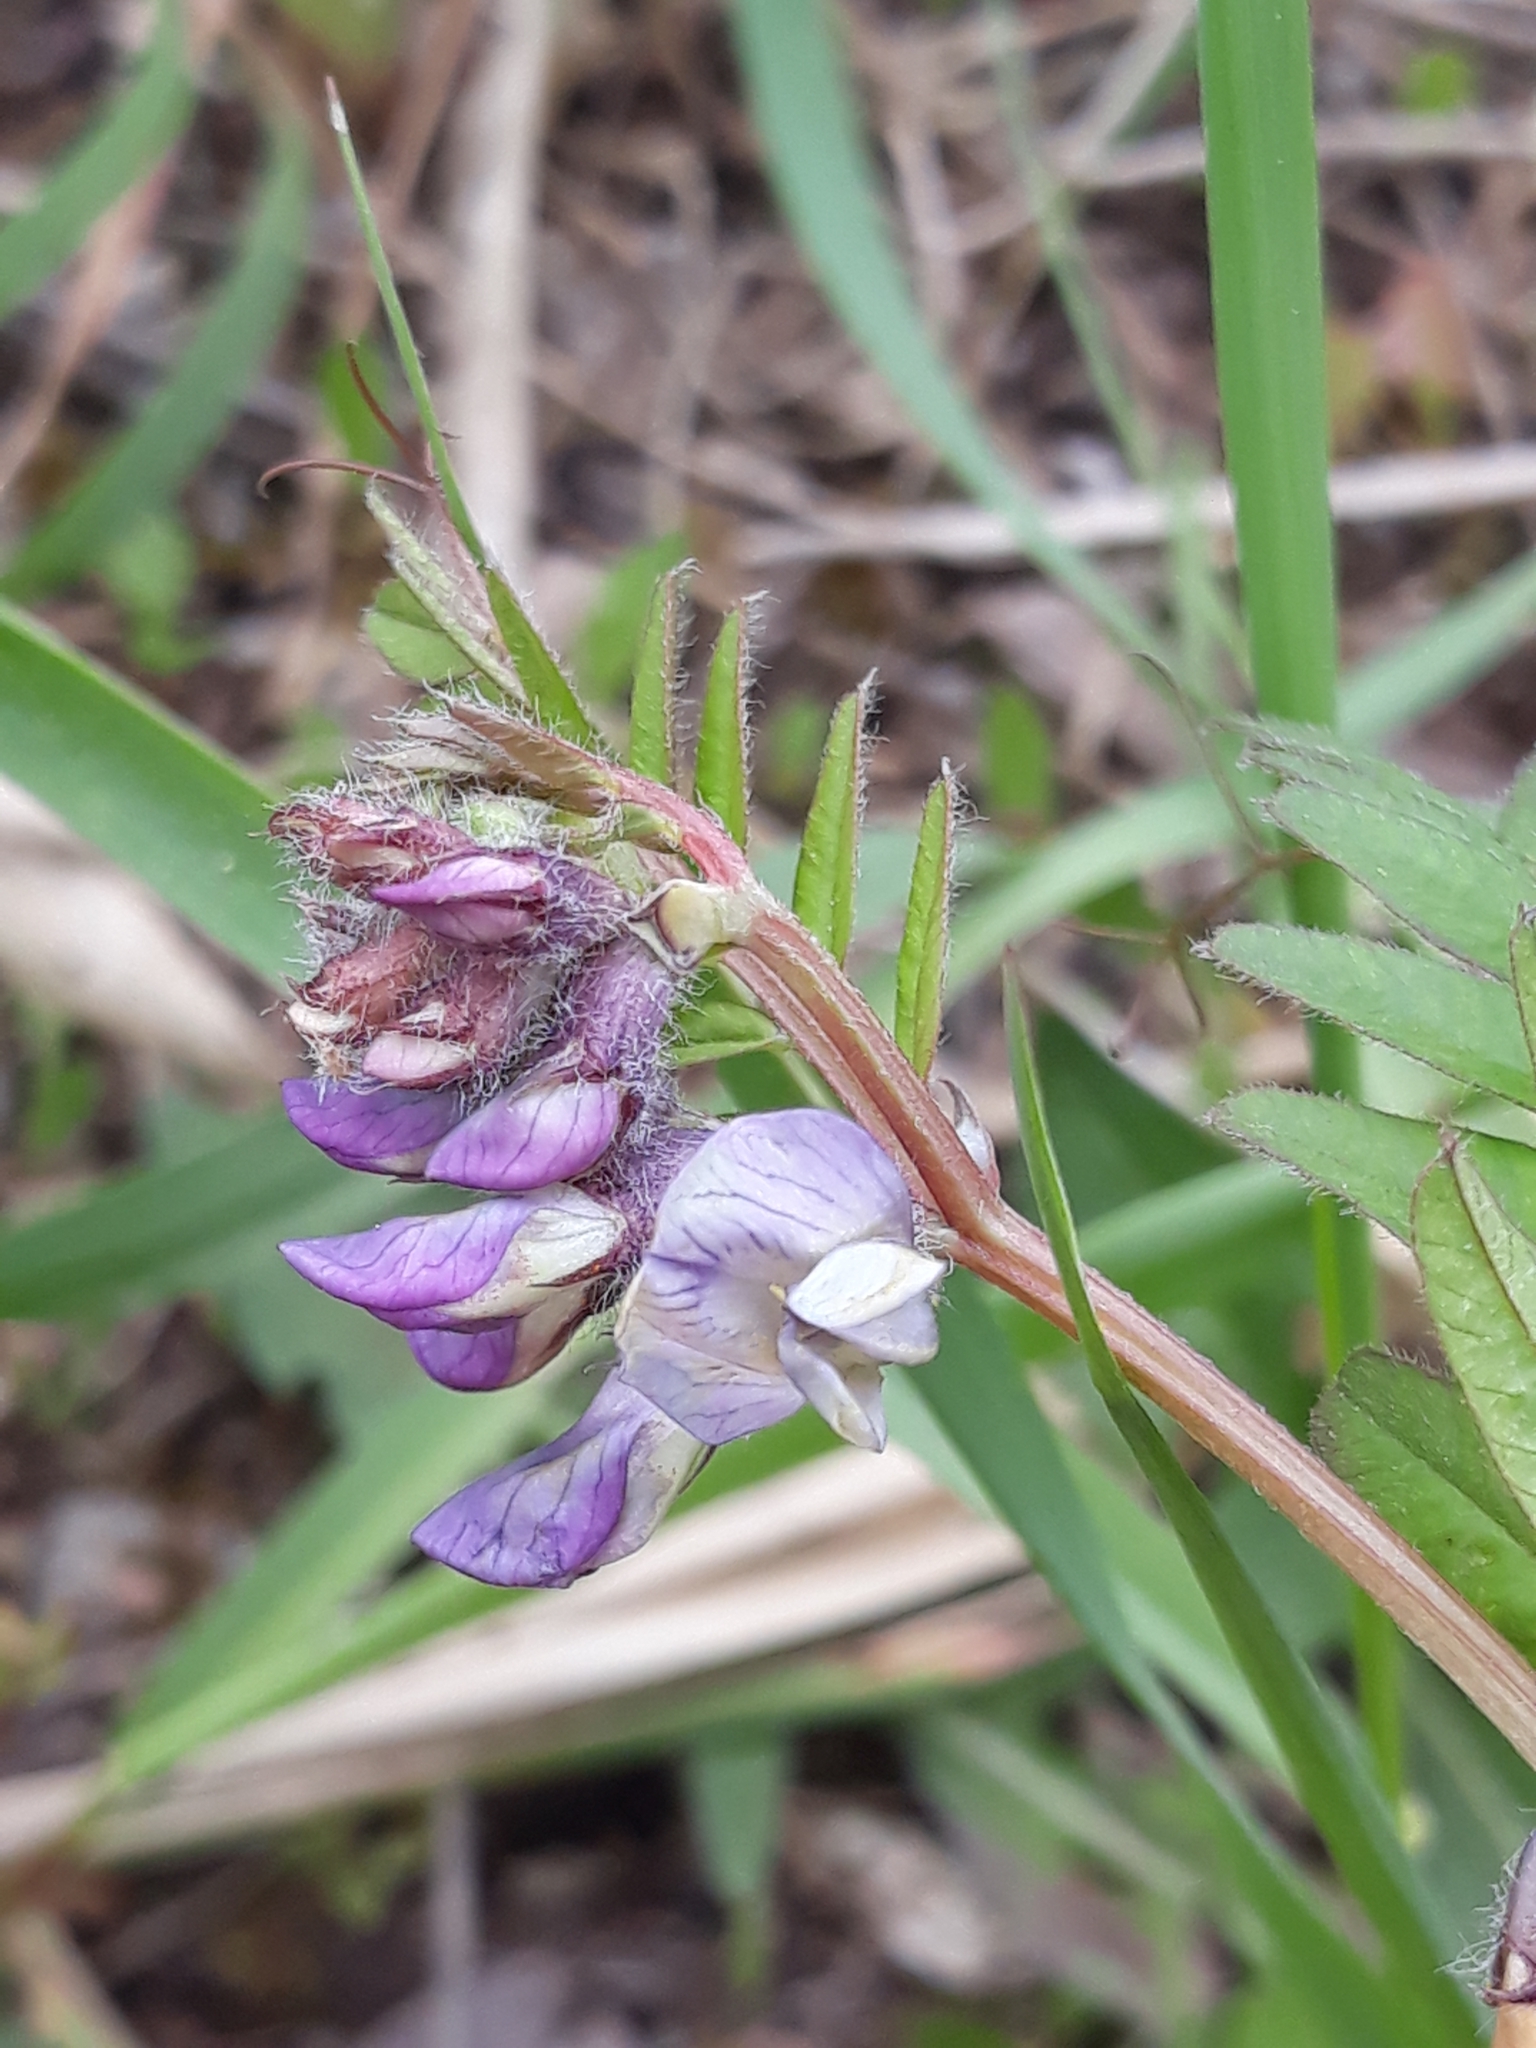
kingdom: Plantae
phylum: Tracheophyta
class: Magnoliopsida
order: Fabales
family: Fabaceae
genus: Vicia
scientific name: Vicia sepium
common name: Bush vetch
